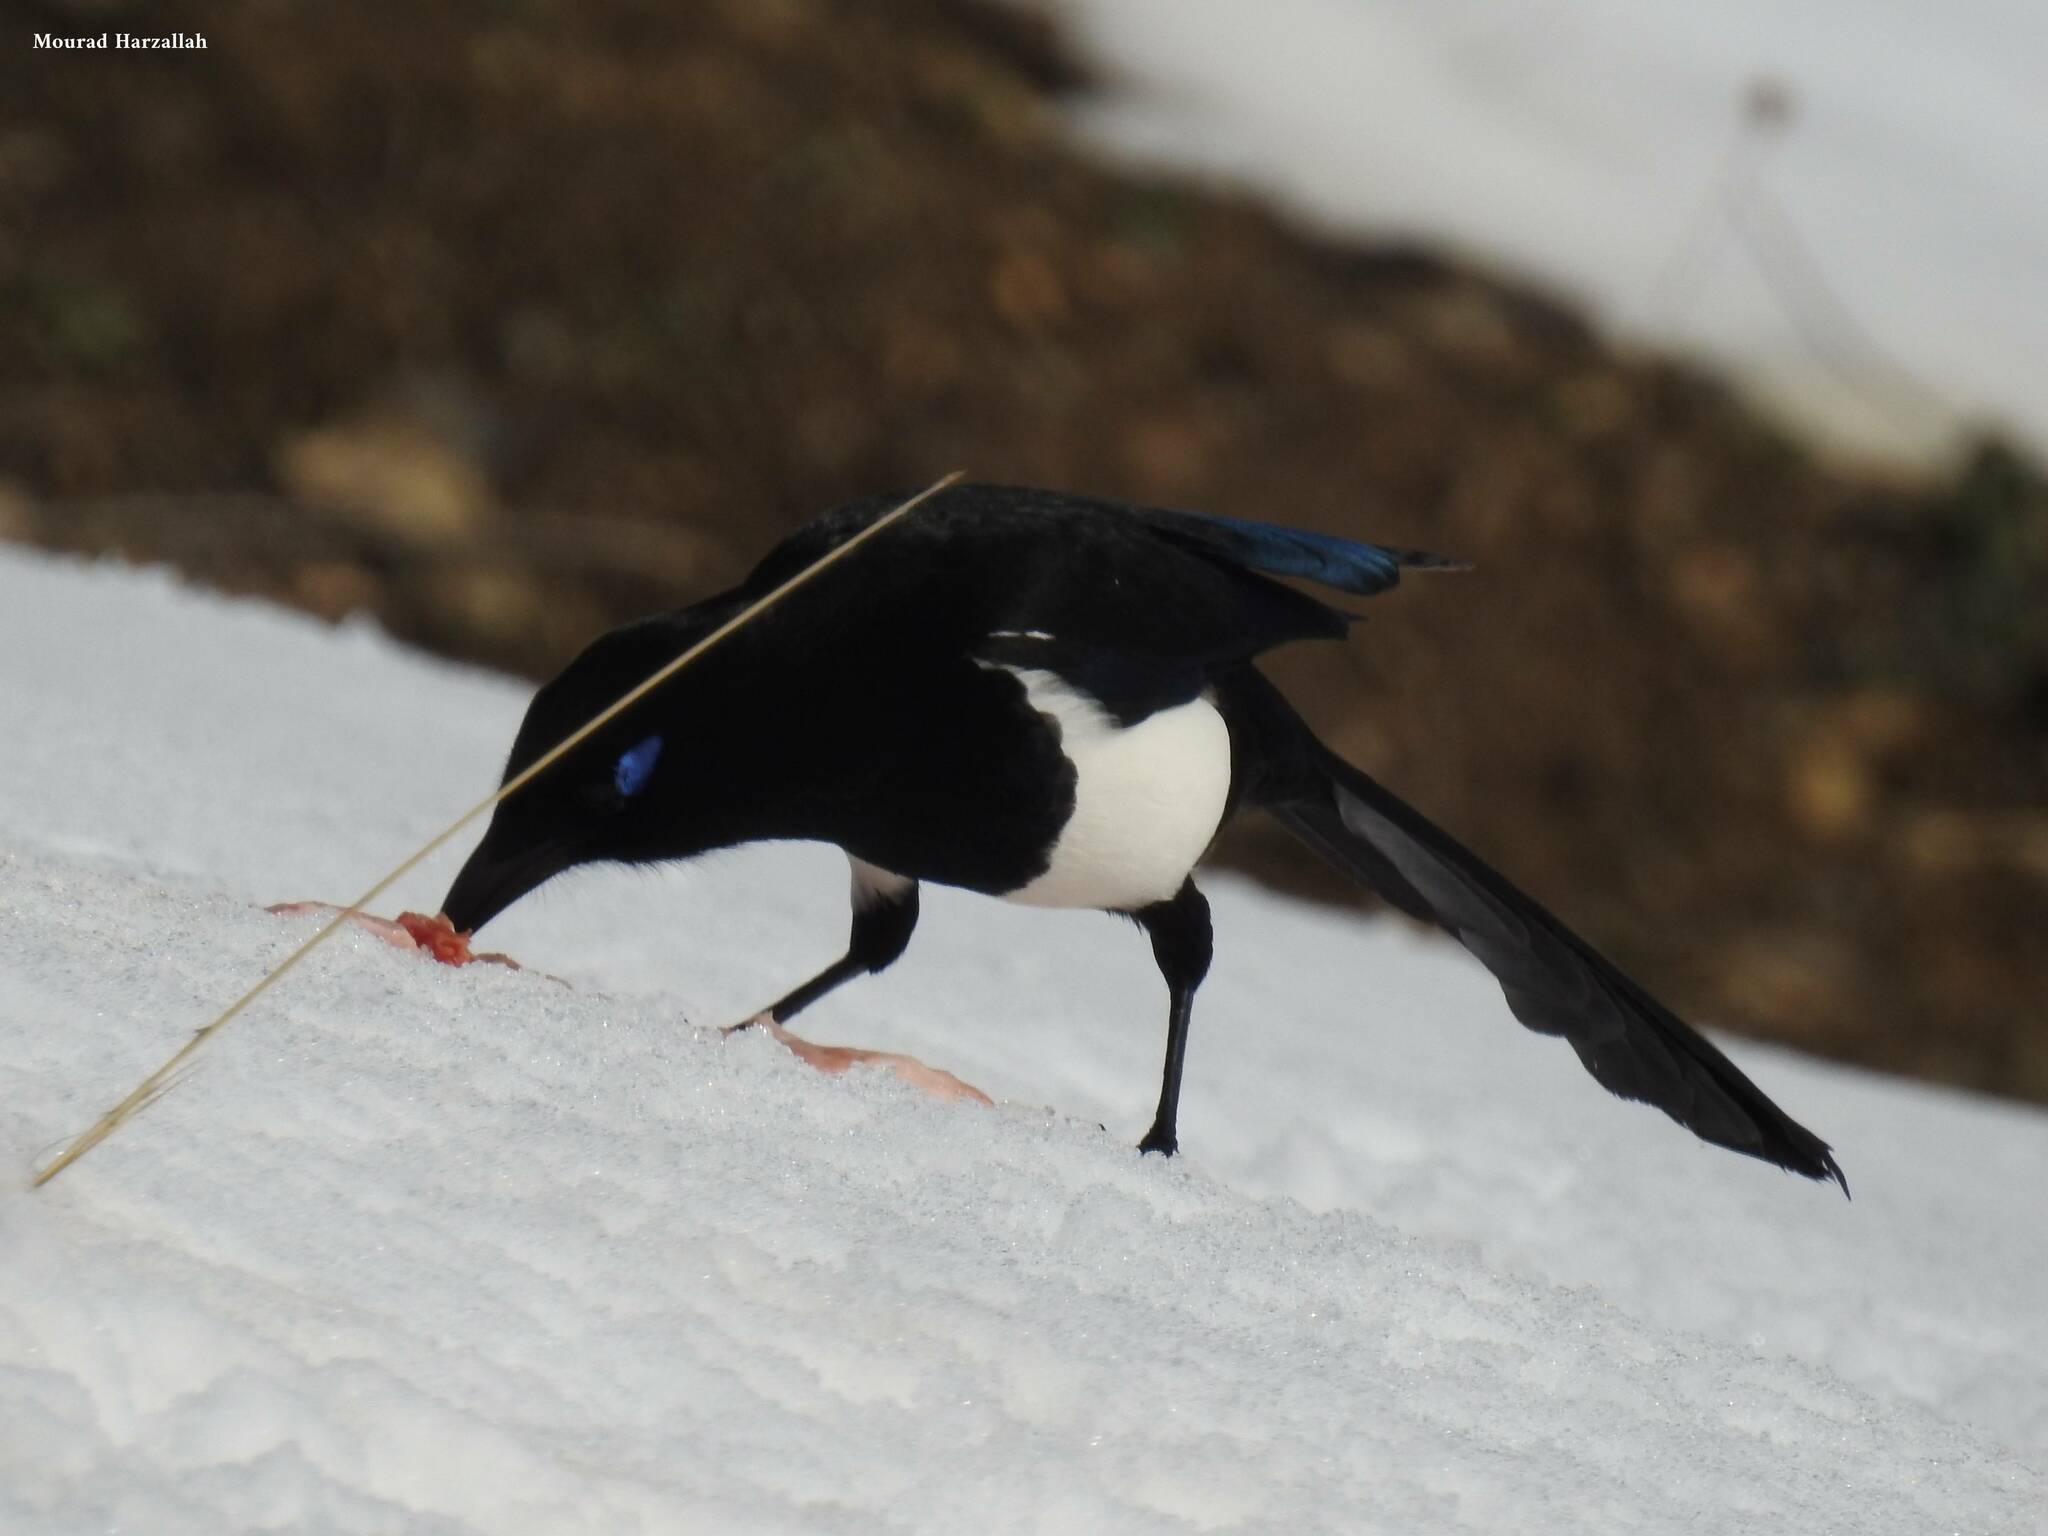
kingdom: Animalia
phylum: Chordata
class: Aves
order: Passeriformes
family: Corvidae
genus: Pica
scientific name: Pica mauritanica
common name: Maghreb magpie
